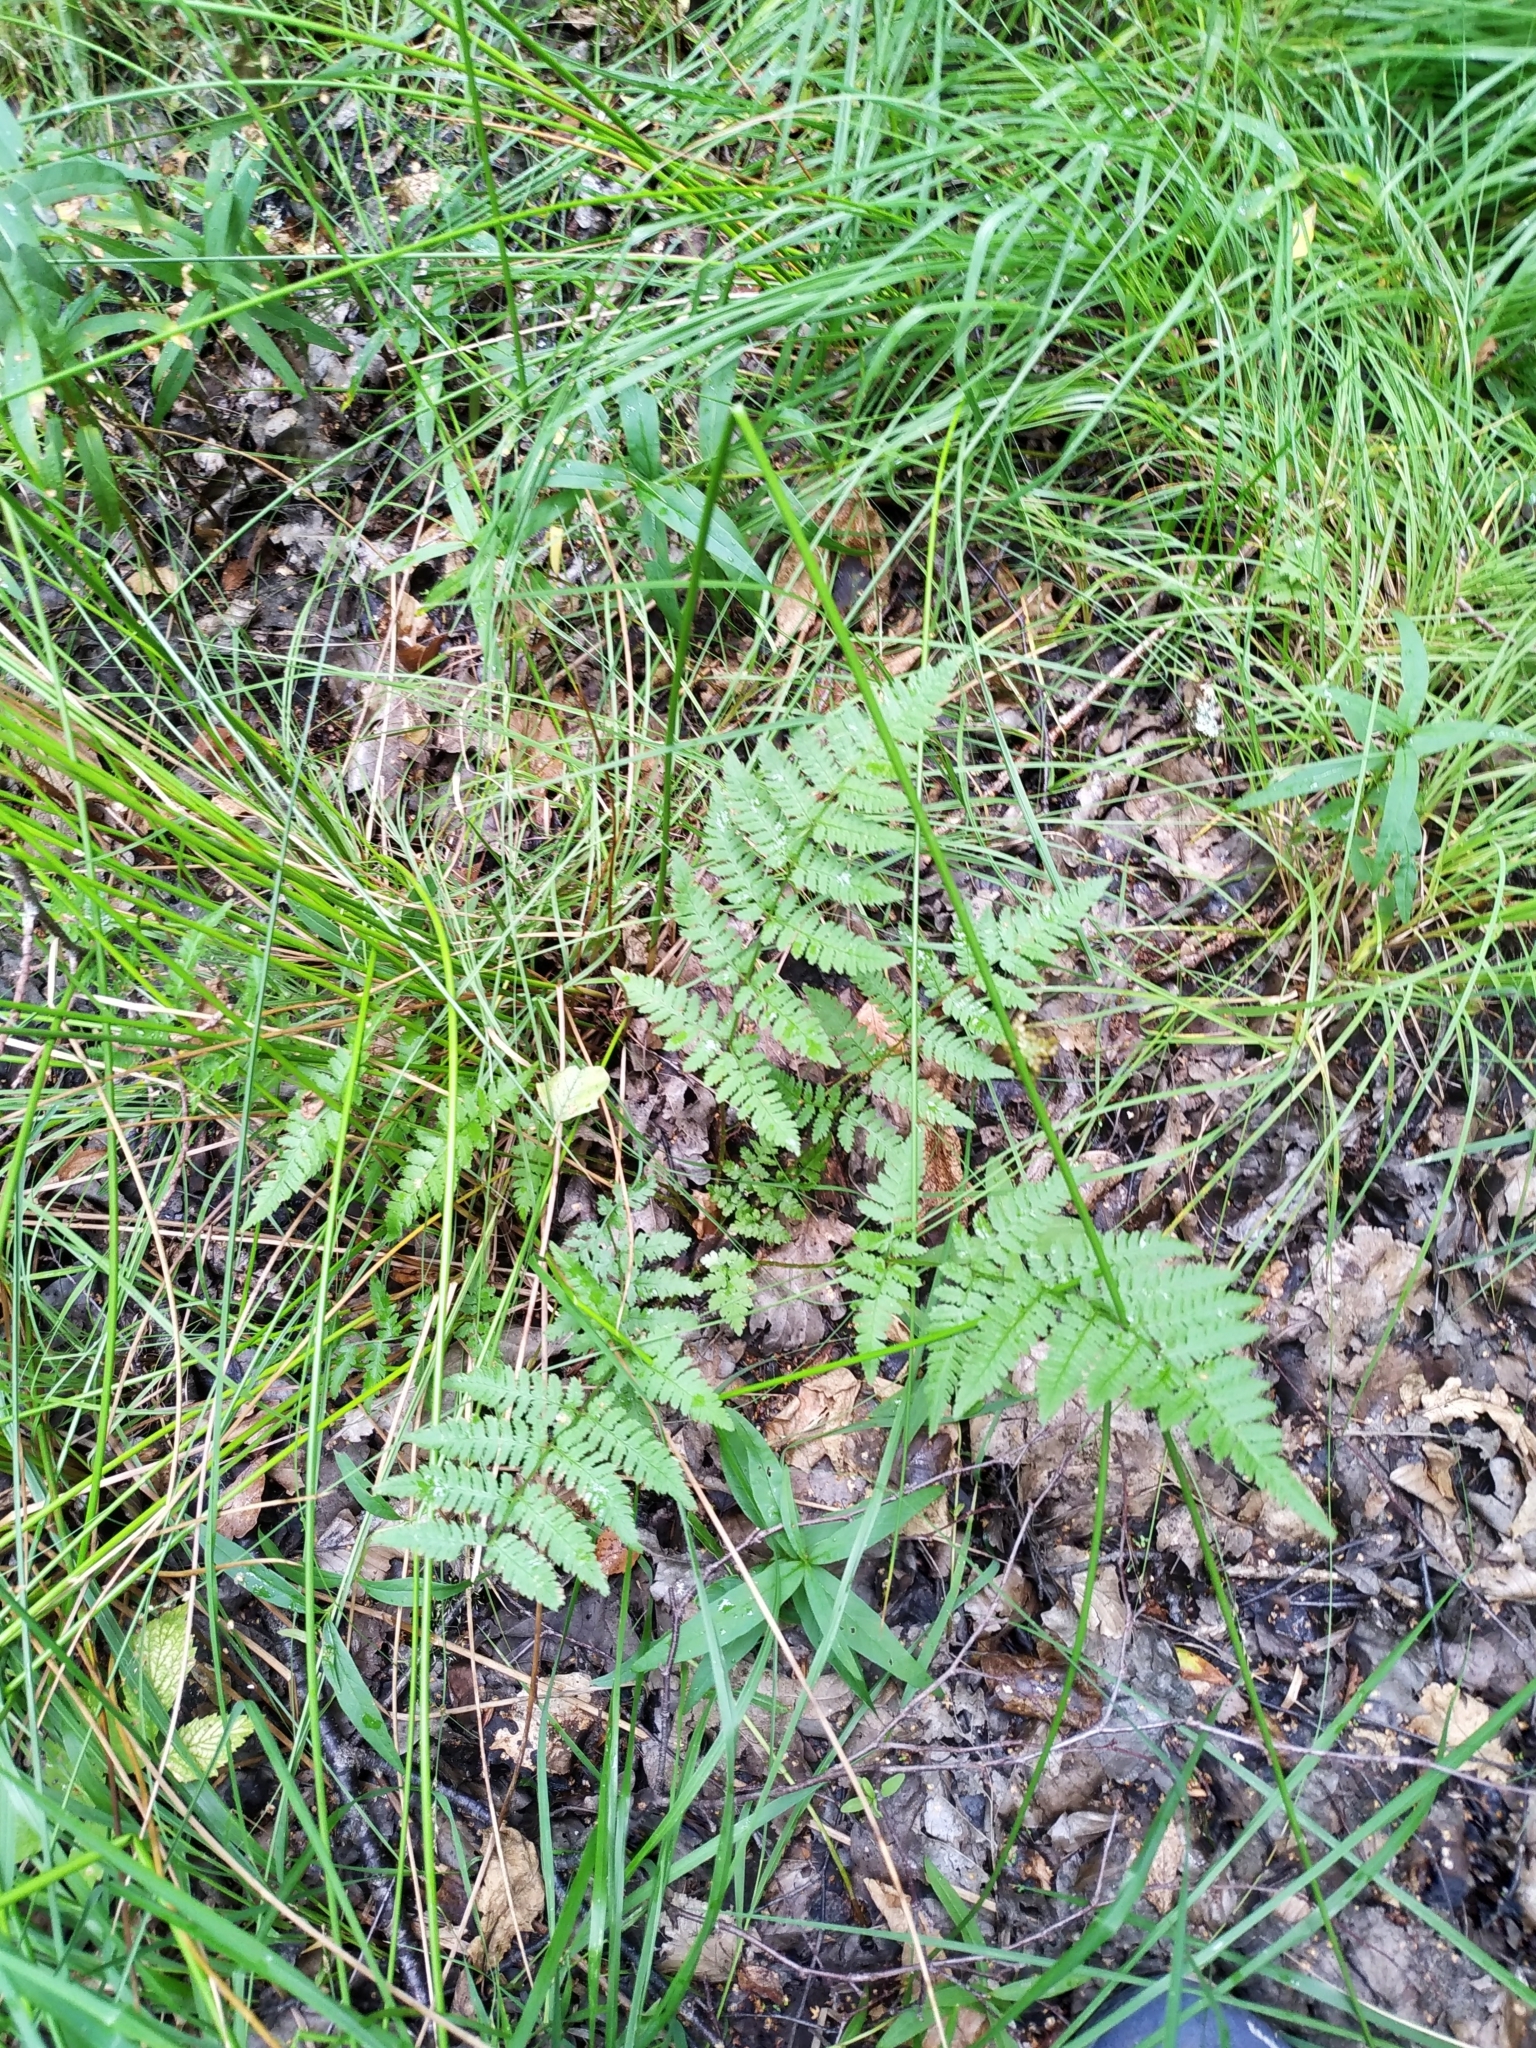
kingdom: Plantae
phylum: Tracheophyta
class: Polypodiopsida
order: Polypodiales
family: Dryopteridaceae
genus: Dryopteris
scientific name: Dryopteris carthusiana
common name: Narrow buckler-fern
